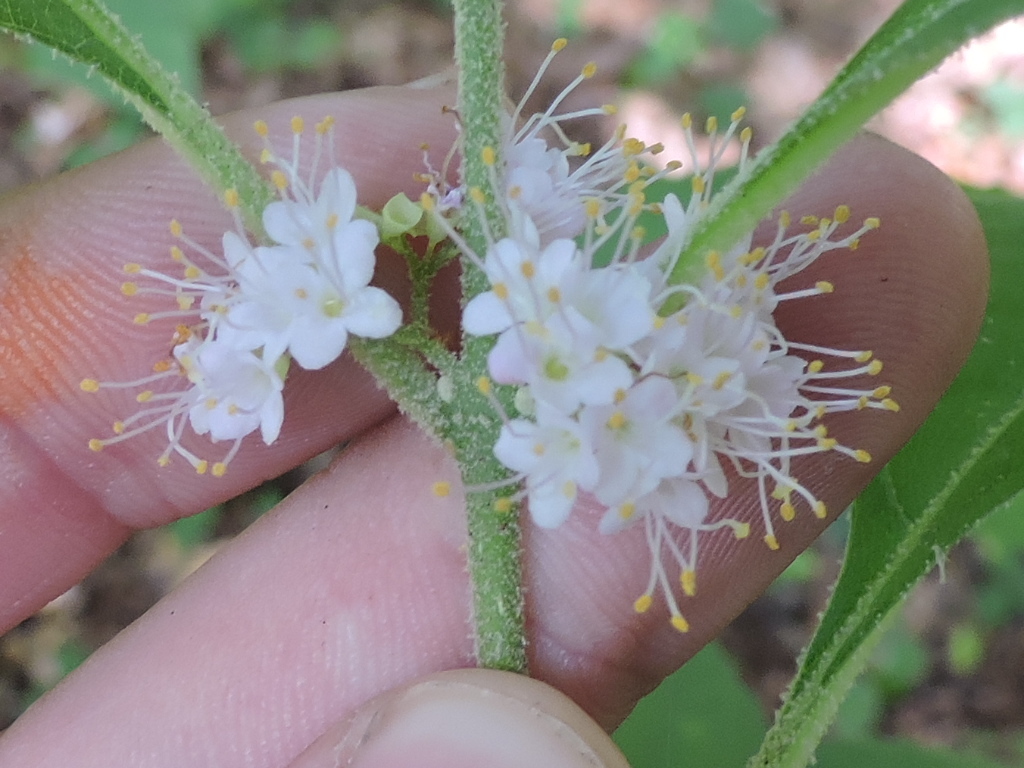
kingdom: Plantae
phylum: Tracheophyta
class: Magnoliopsida
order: Lamiales
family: Lamiaceae
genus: Callicarpa
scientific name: Callicarpa americana
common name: American beautyberry
